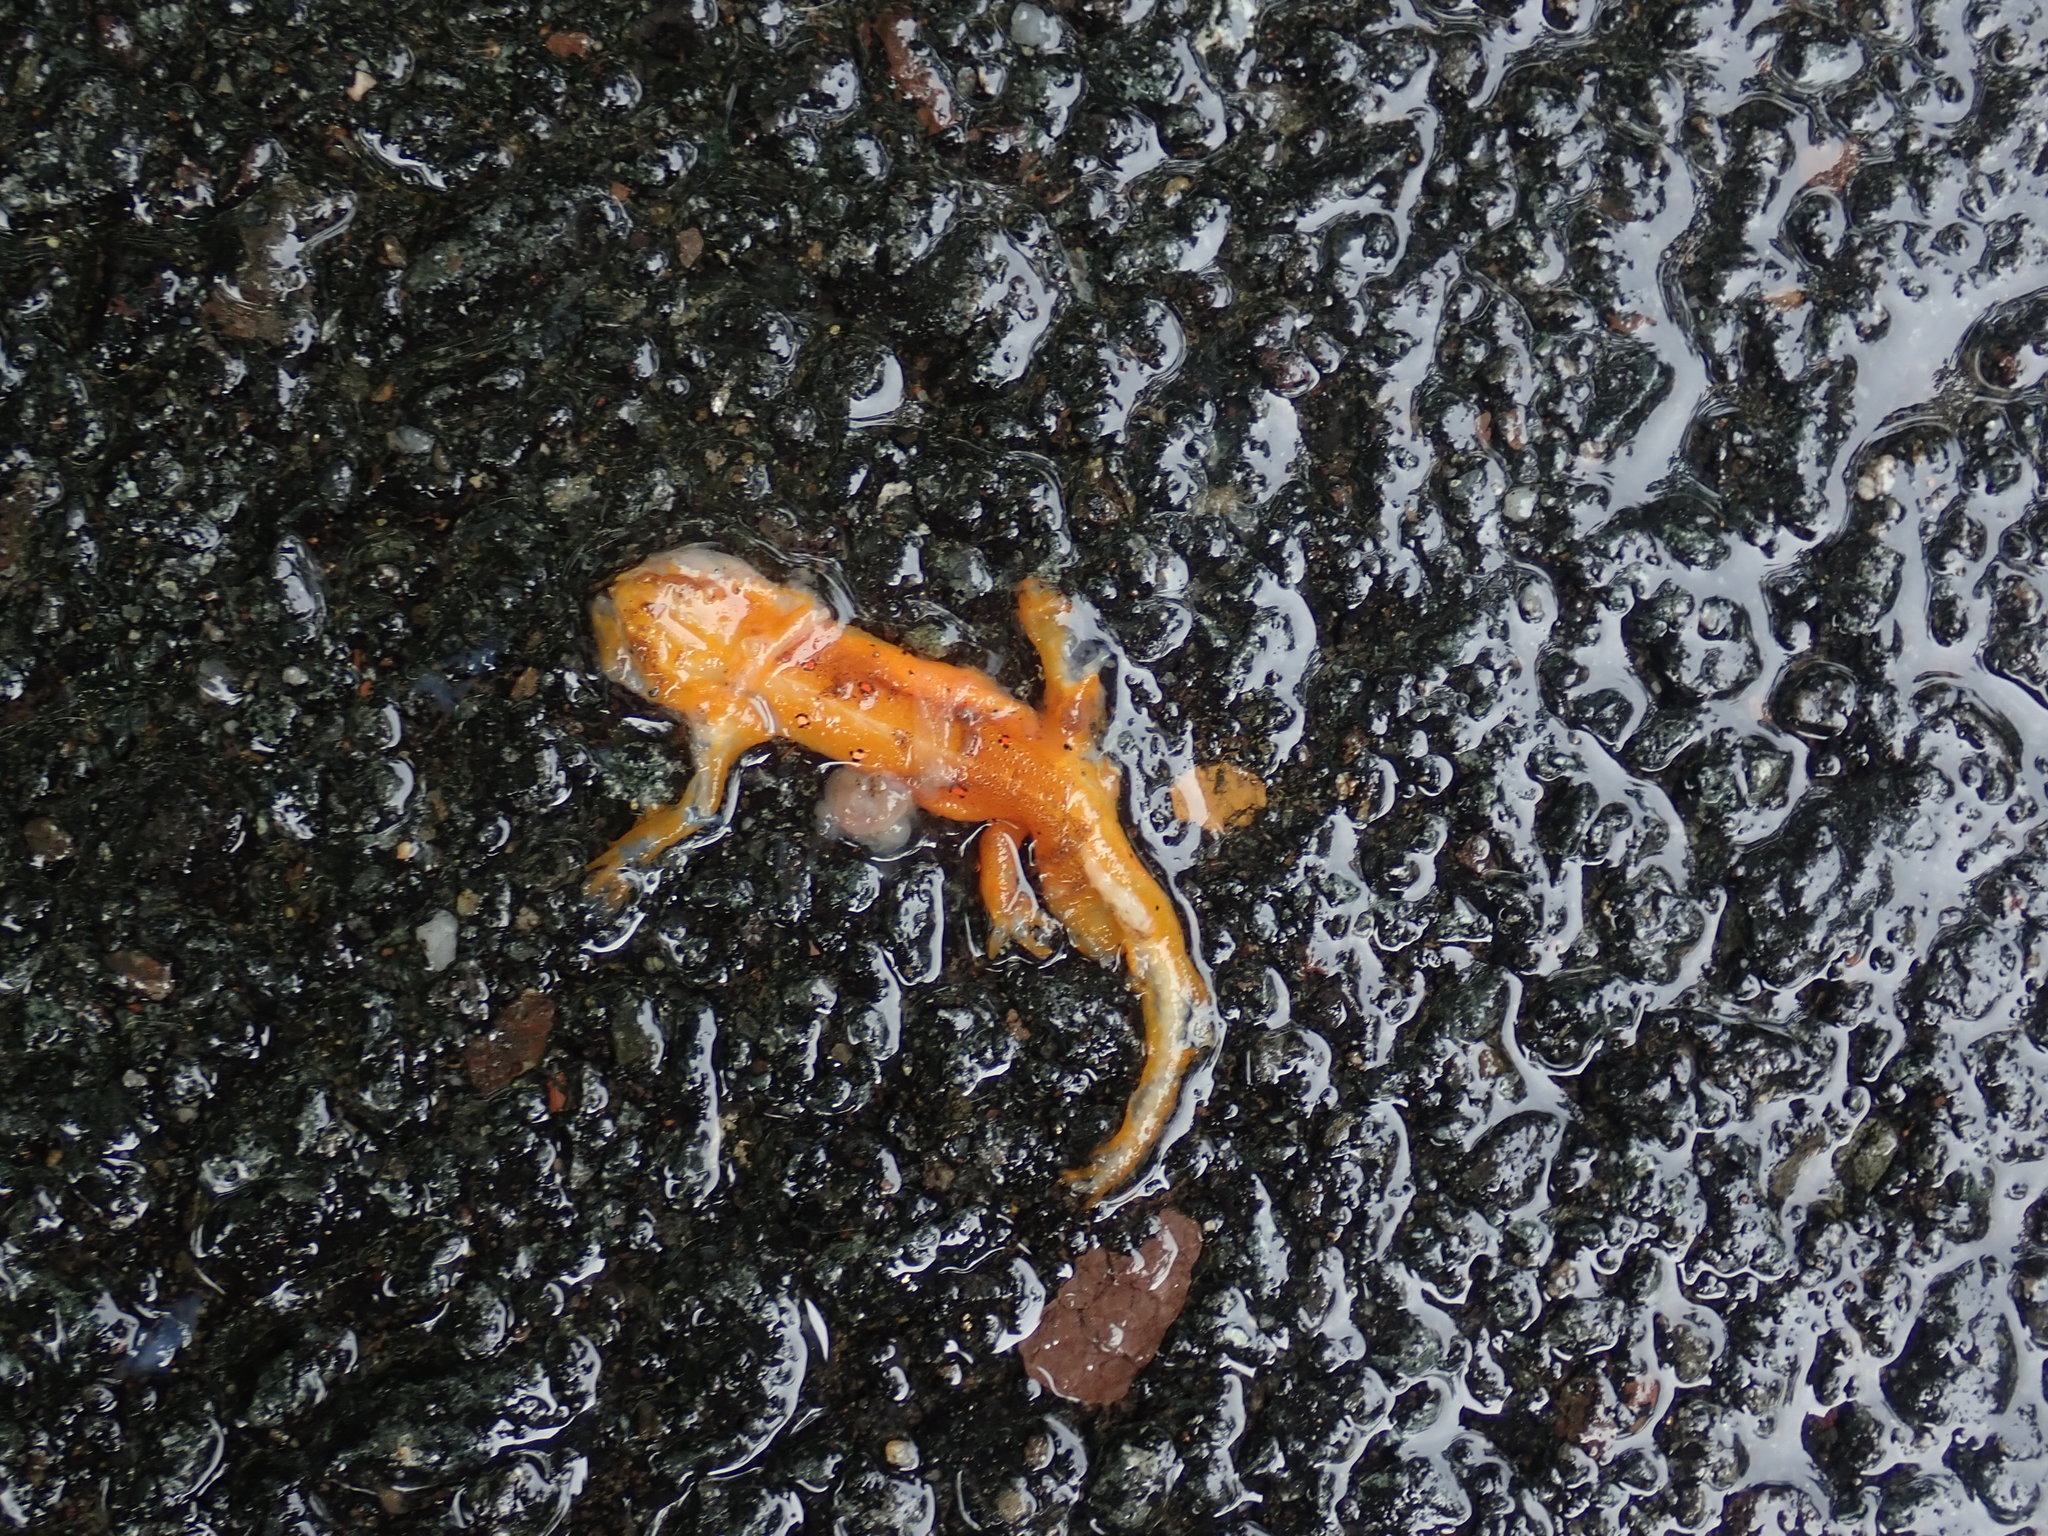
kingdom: Animalia
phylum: Chordata
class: Amphibia
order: Caudata
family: Salamandridae
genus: Notophthalmus
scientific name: Notophthalmus viridescens
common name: Eastern newt
